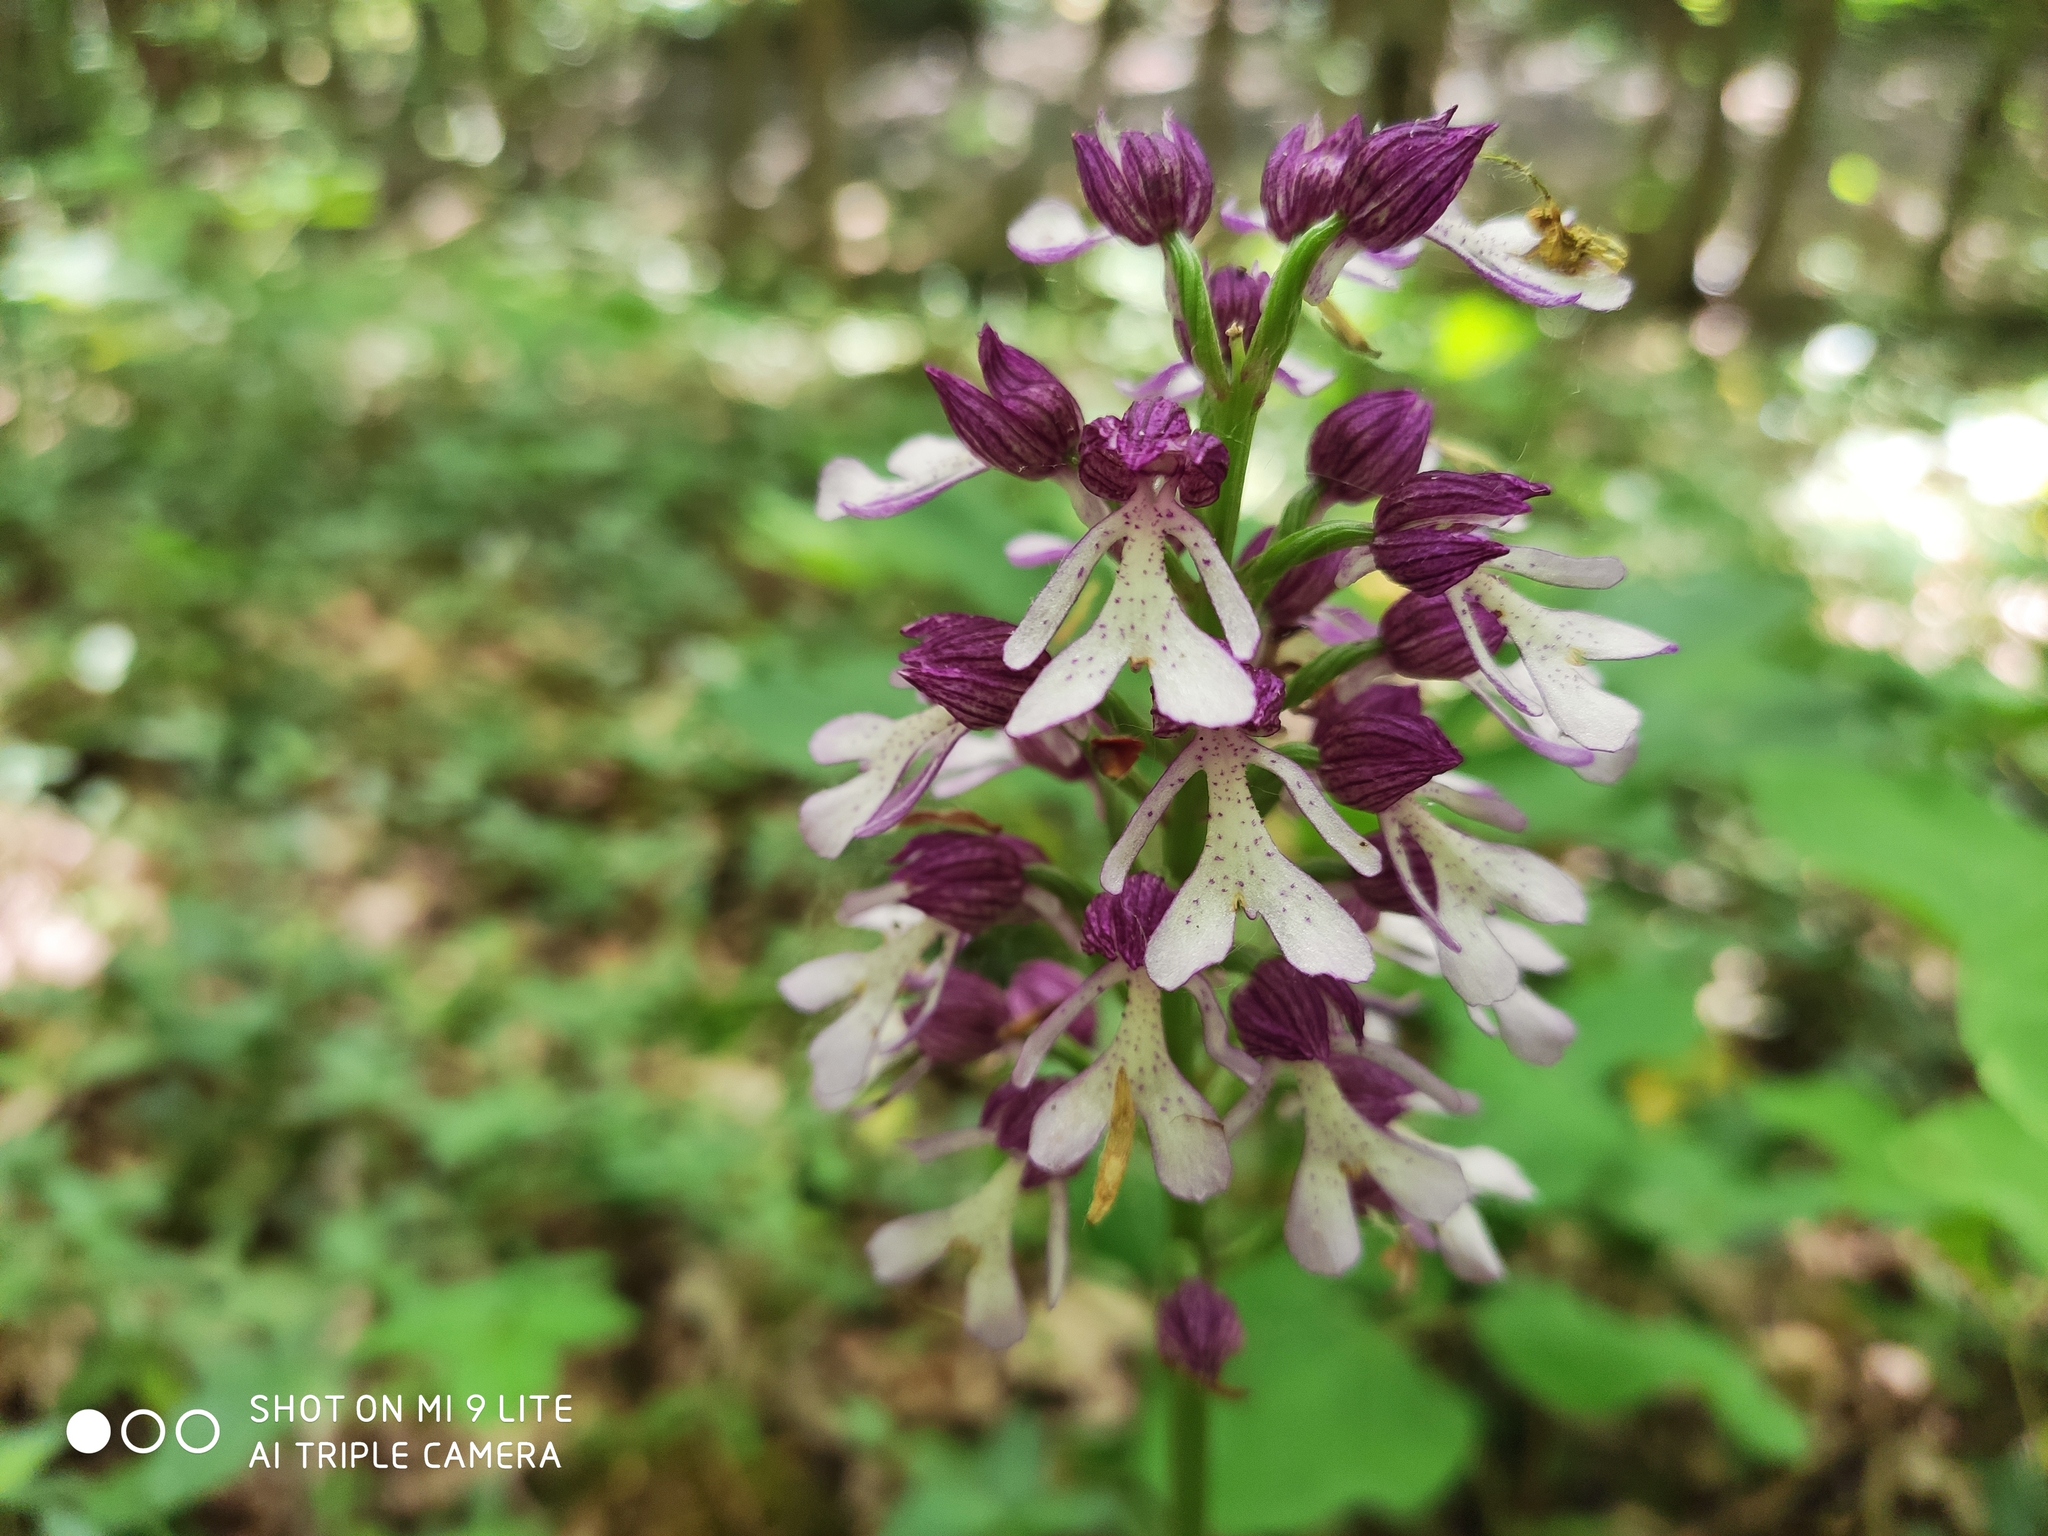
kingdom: Plantae
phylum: Tracheophyta
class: Liliopsida
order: Asparagales
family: Orchidaceae
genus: Orchis
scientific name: Orchis purpurea
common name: Lady orchid
